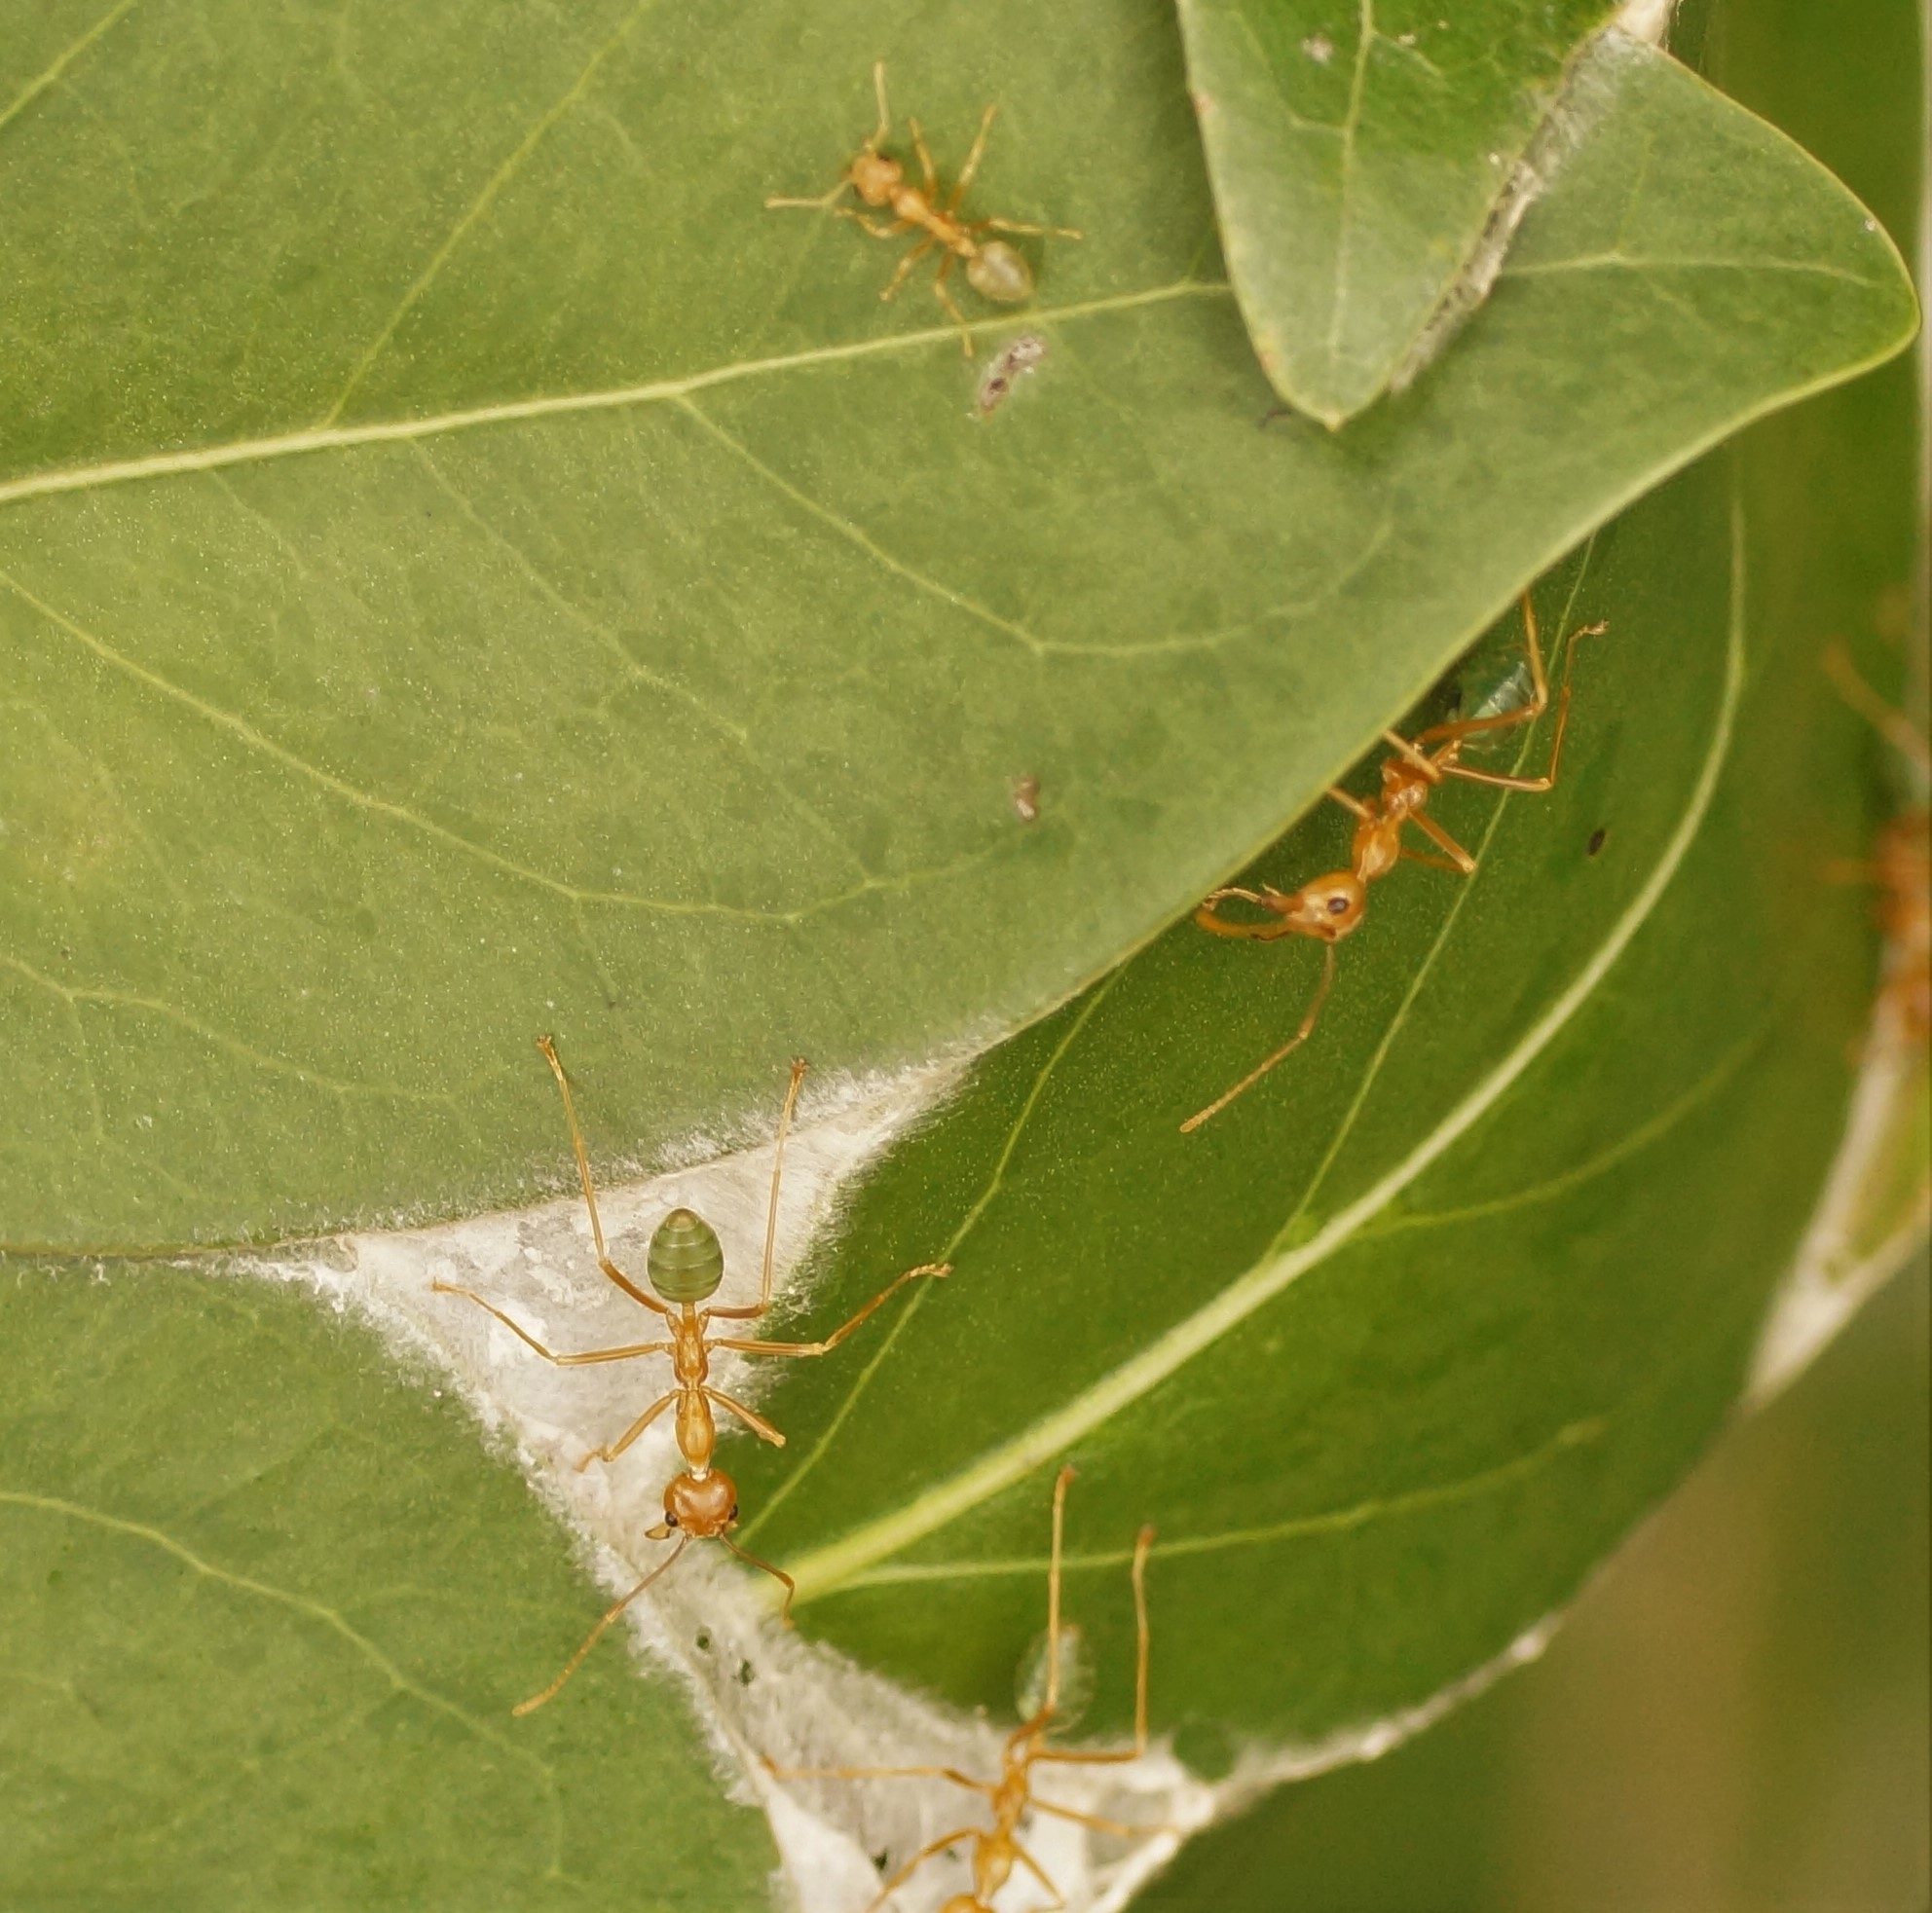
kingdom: Animalia
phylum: Arthropoda
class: Insecta
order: Hymenoptera
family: Formicidae
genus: Oecophylla
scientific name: Oecophylla smaragdina
